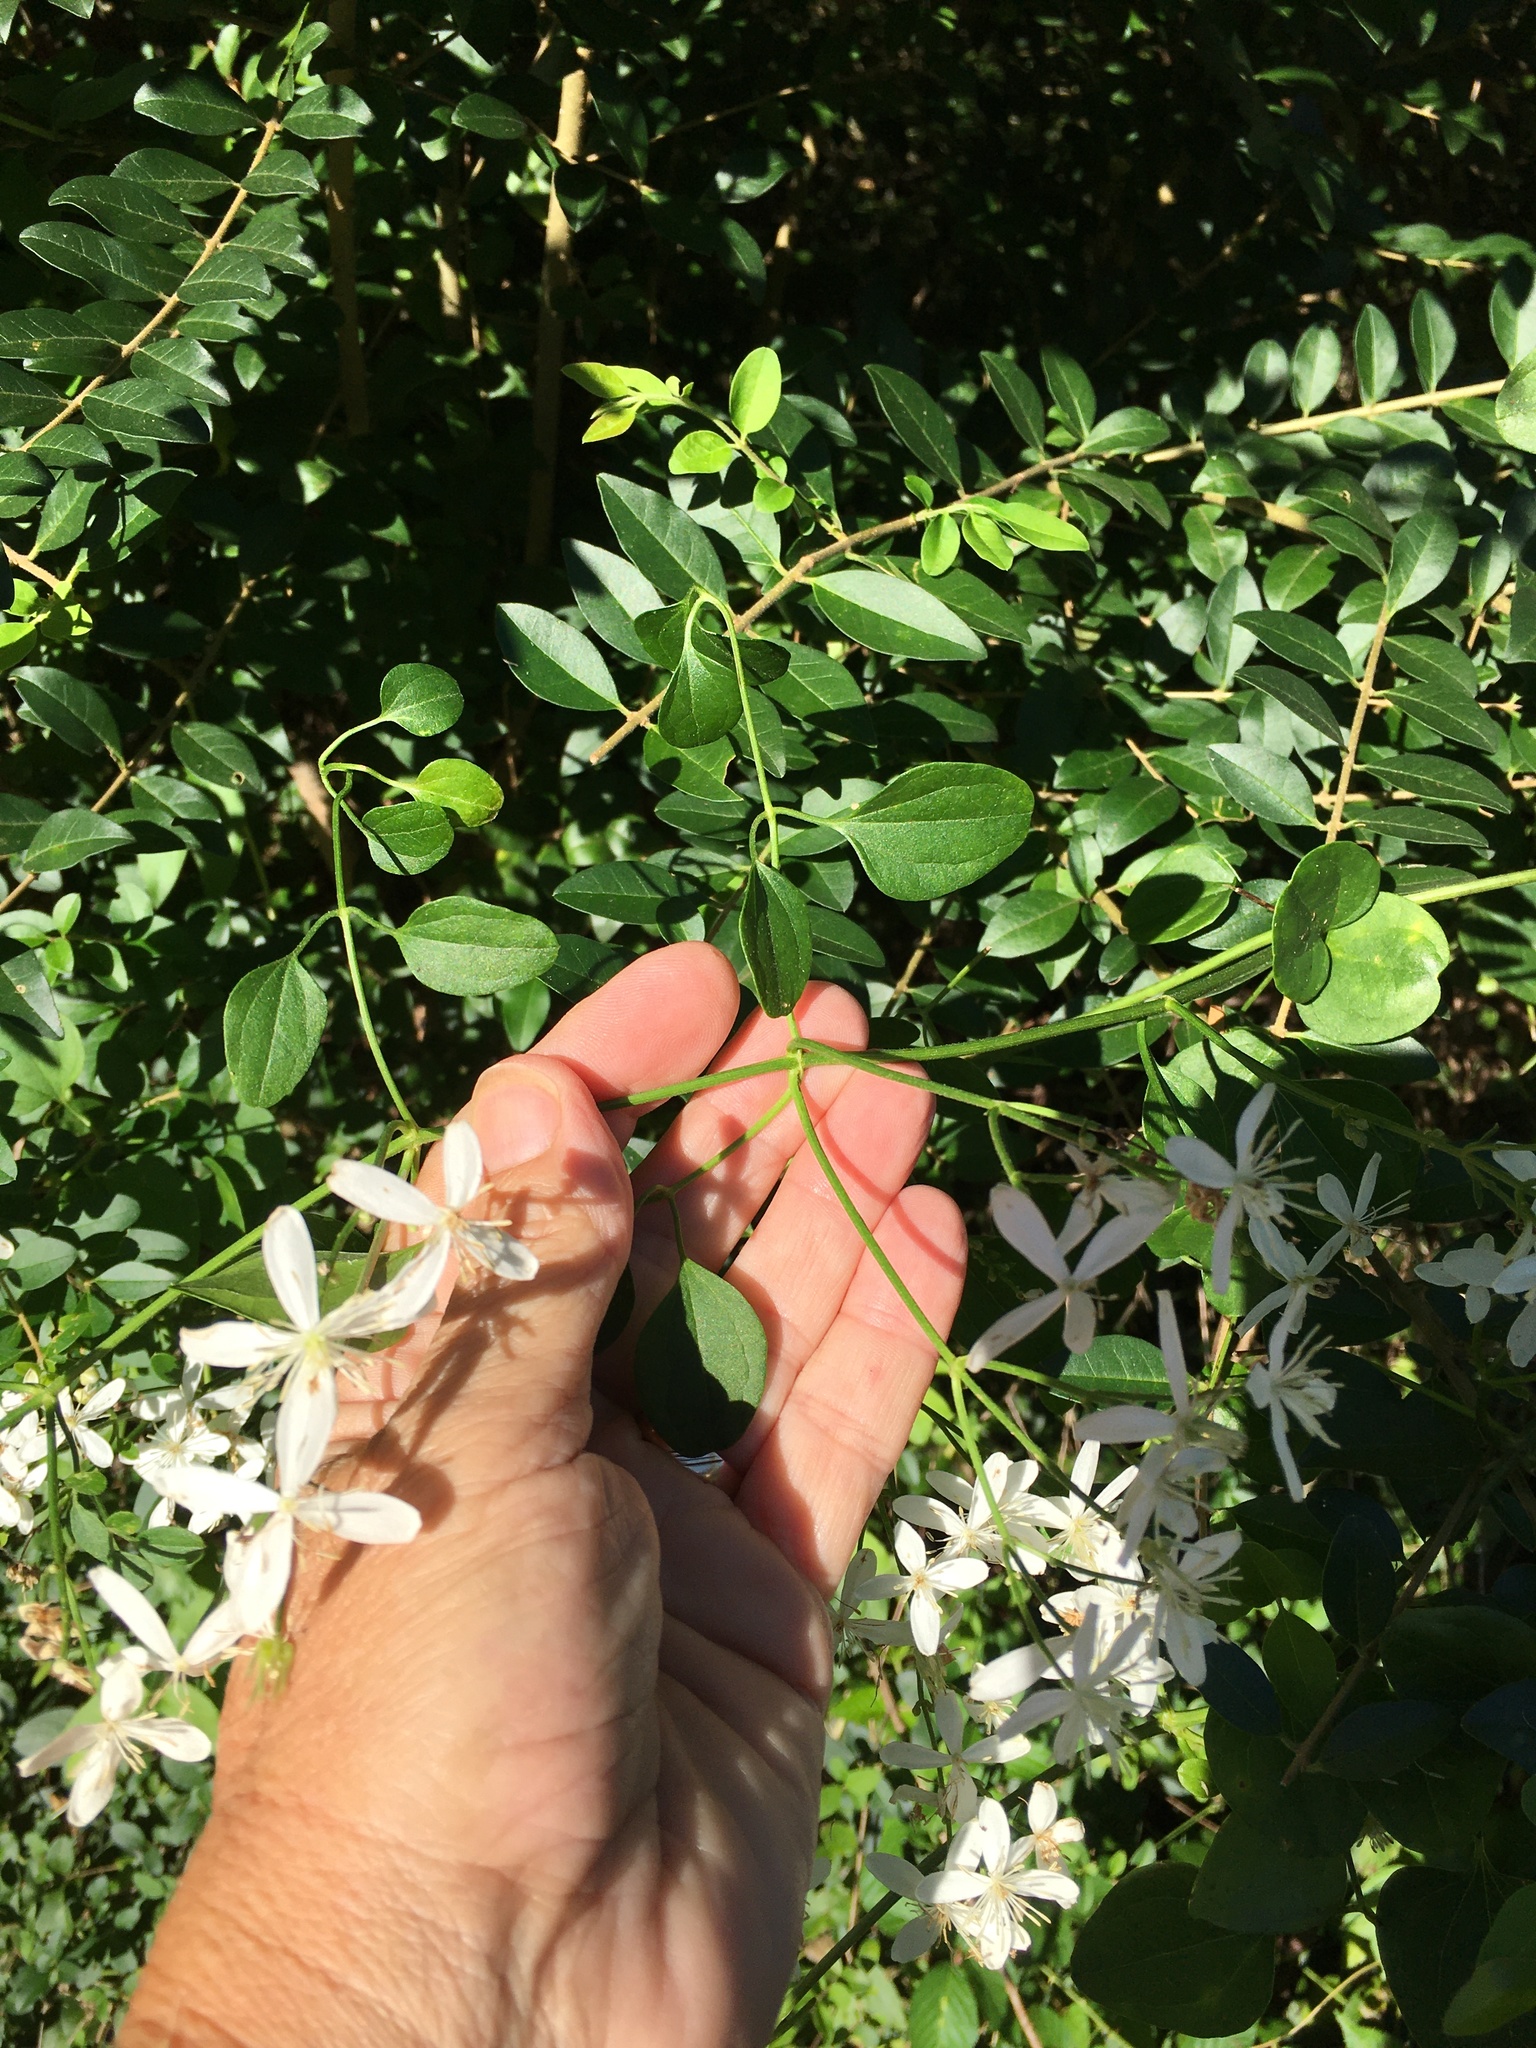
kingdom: Plantae
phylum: Tracheophyta
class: Magnoliopsida
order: Ranunculales
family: Ranunculaceae
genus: Clematis
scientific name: Clematis terniflora
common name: Sweet autumn clematis
